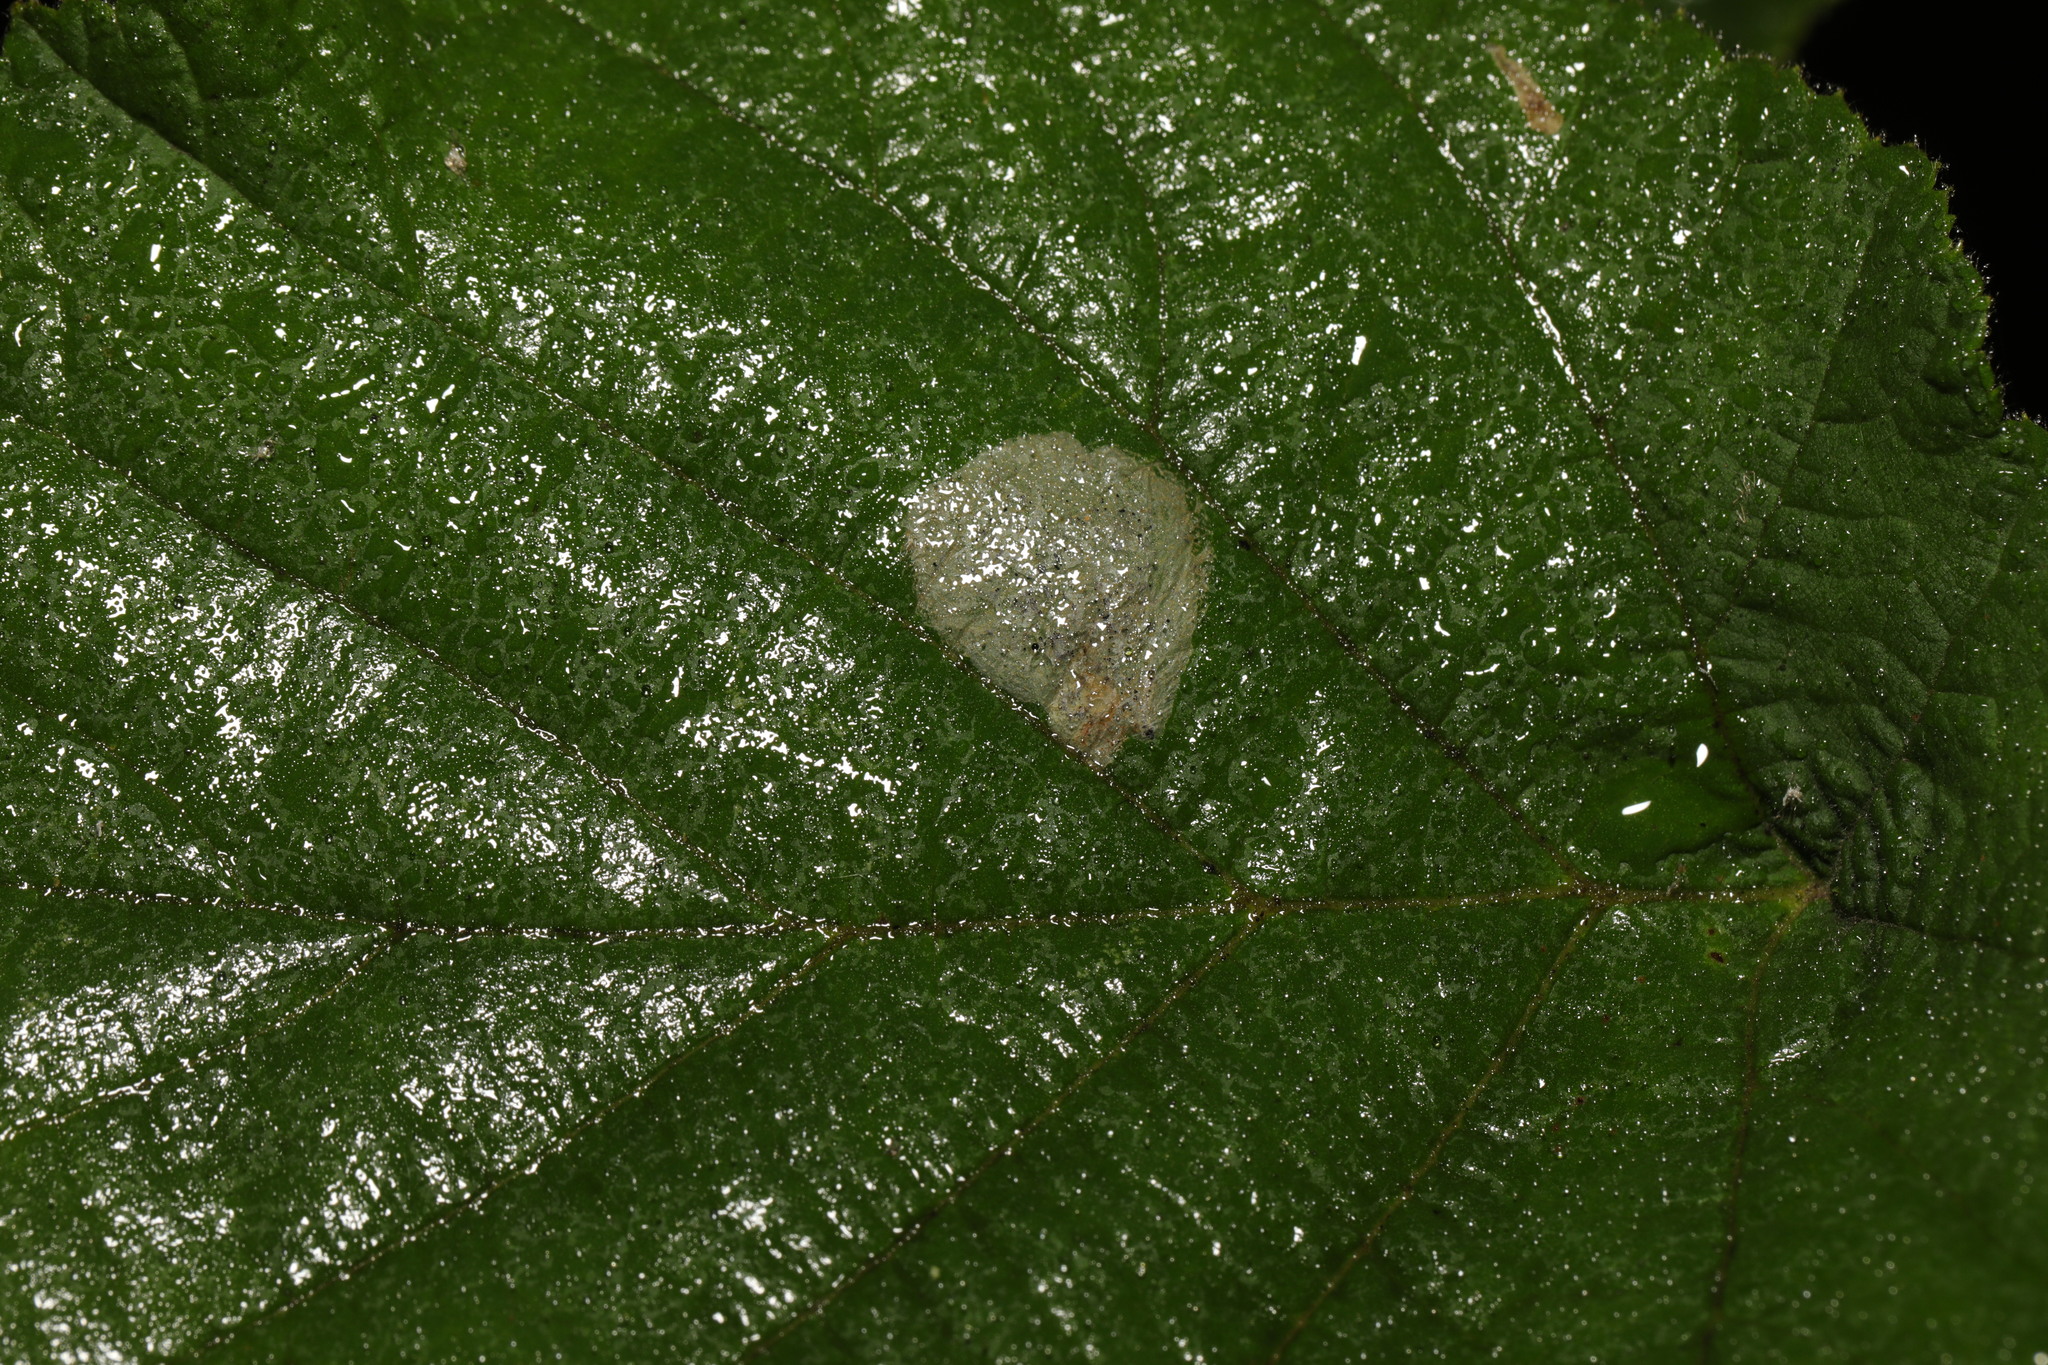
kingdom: Animalia
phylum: Arthropoda
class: Insecta
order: Lepidoptera
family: Gracillariidae
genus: Phyllonorycter
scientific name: Phyllonorycter coryli
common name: Nut-leaf blister moth
